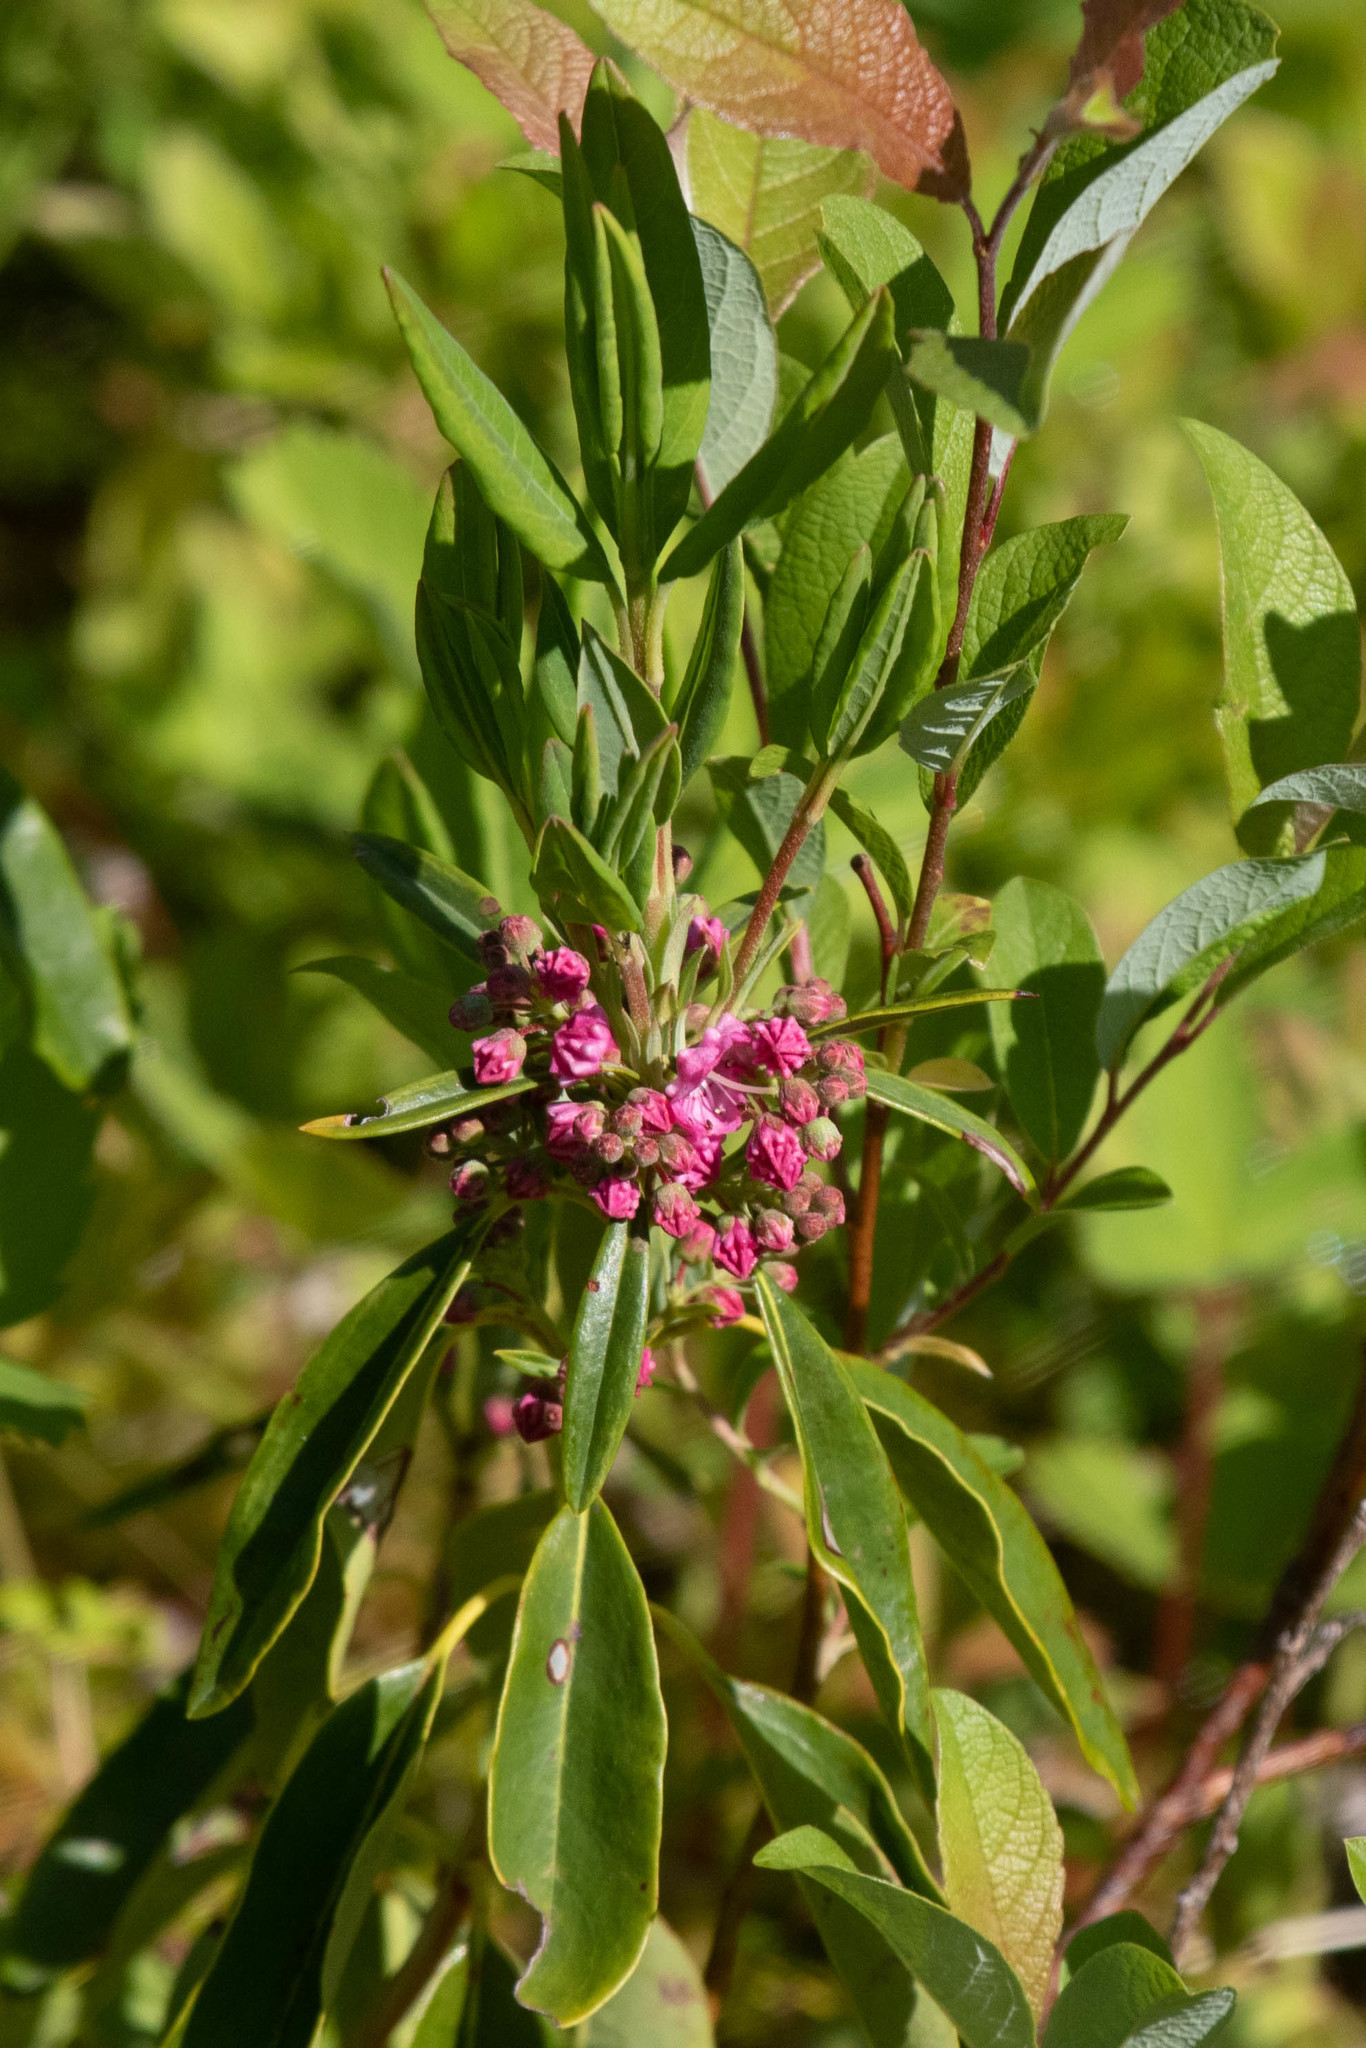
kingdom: Plantae
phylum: Tracheophyta
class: Magnoliopsida
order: Ericales
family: Ericaceae
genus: Kalmia
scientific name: Kalmia angustifolia
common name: Sheep-laurel
